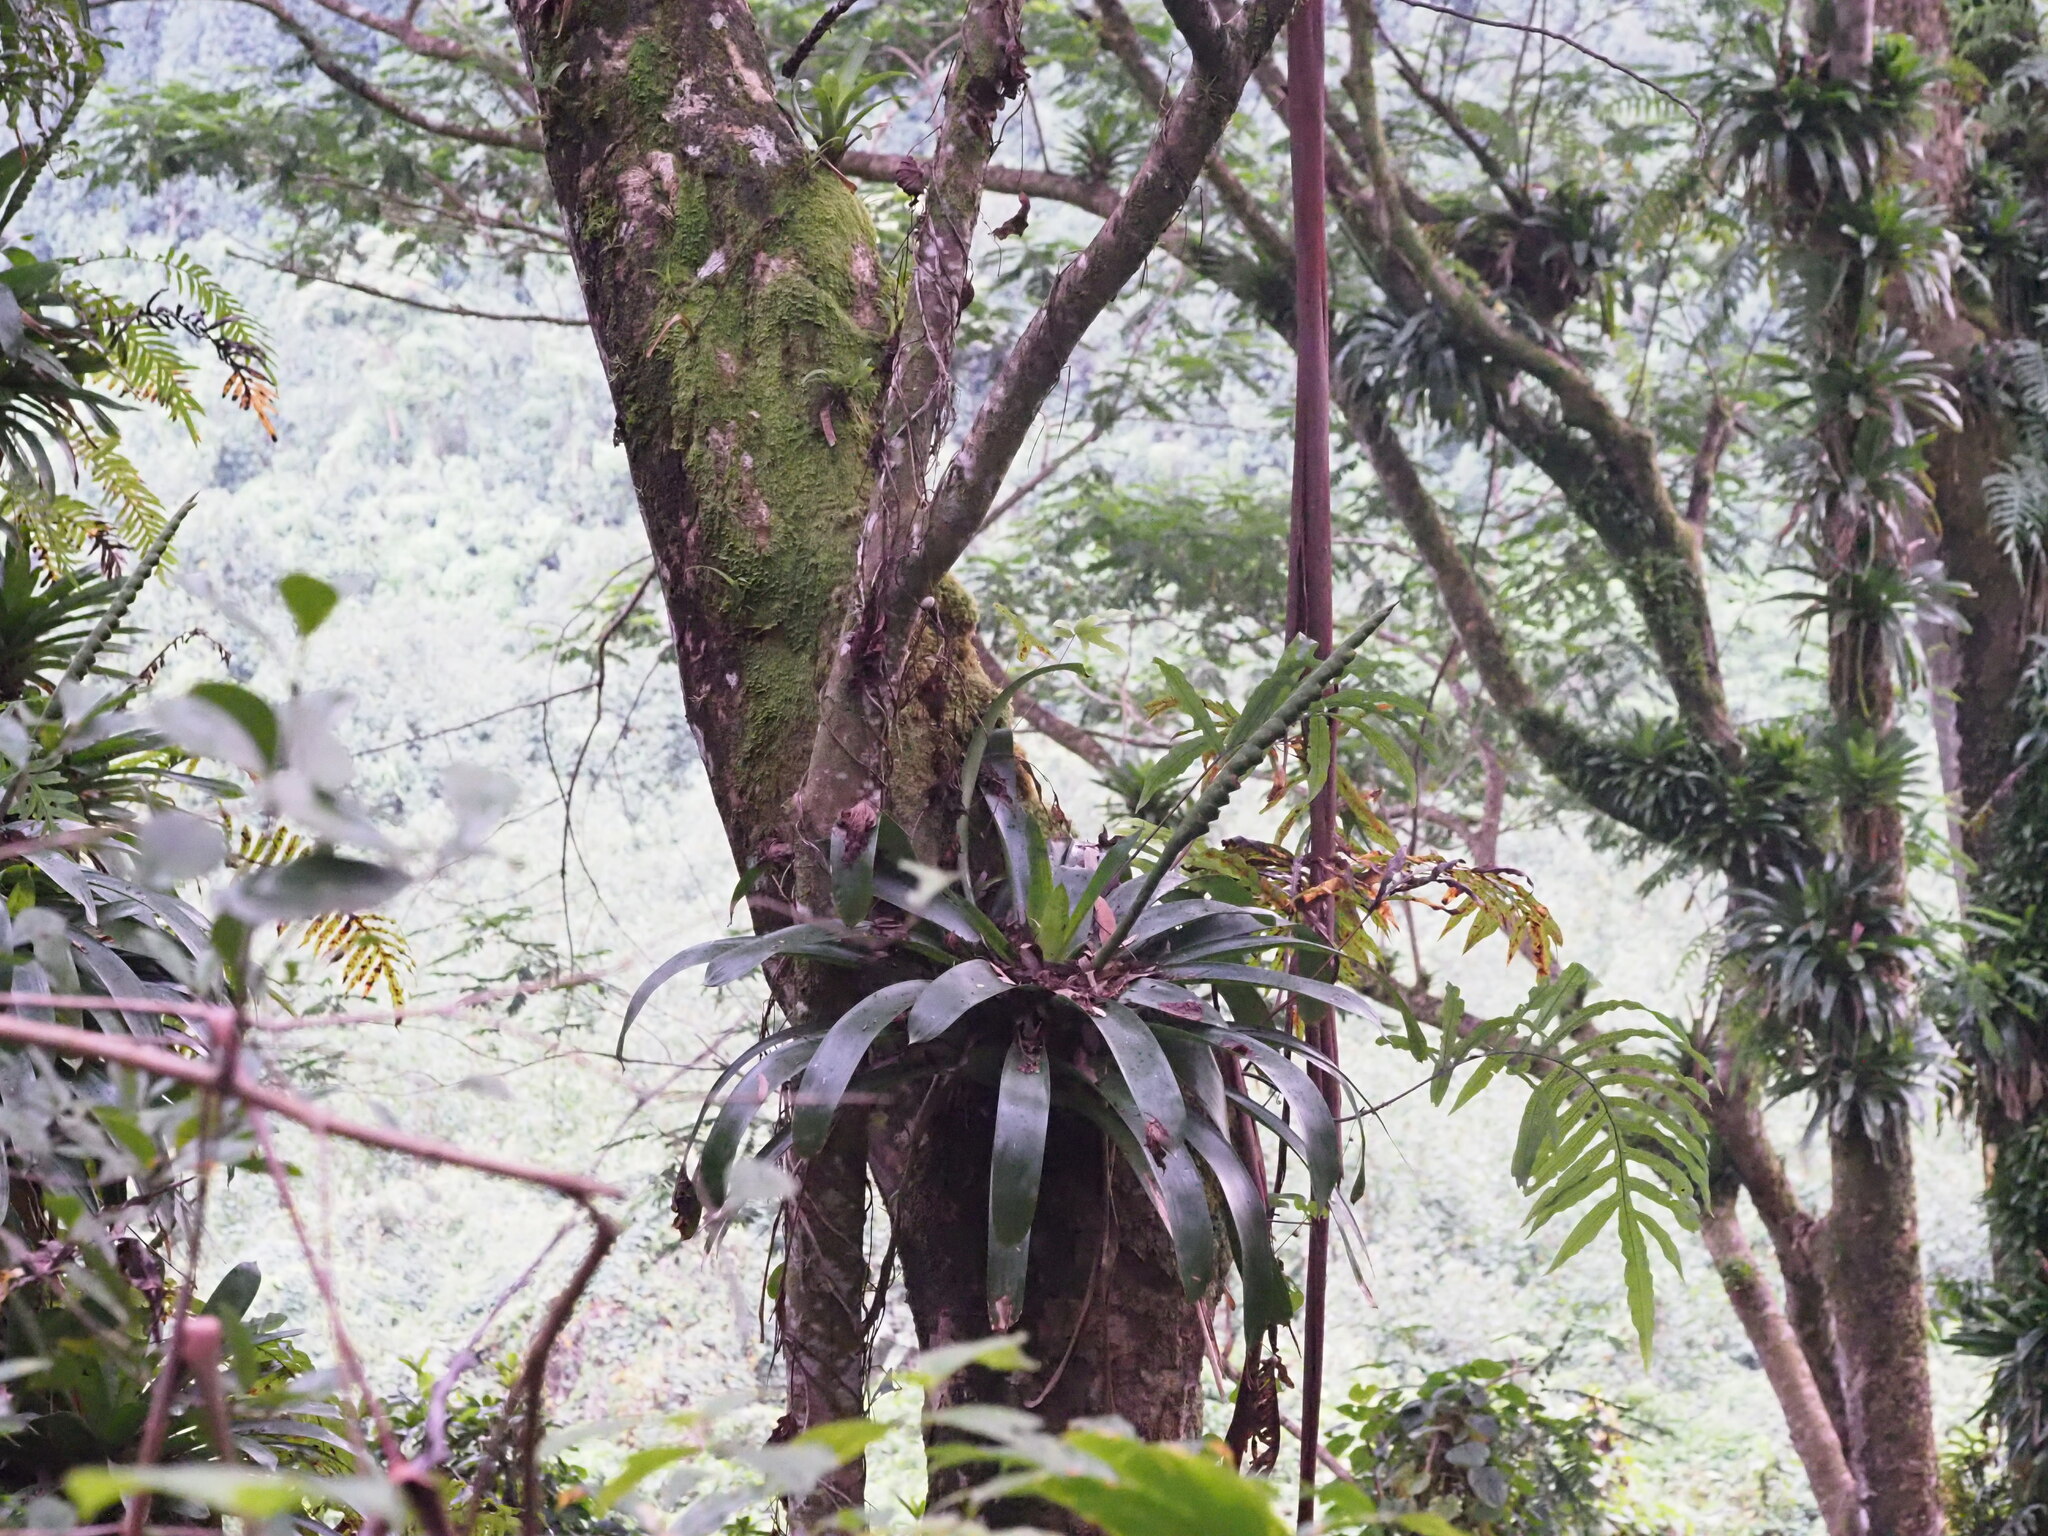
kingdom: Plantae
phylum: Tracheophyta
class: Liliopsida
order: Poales
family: Bromeliaceae
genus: Werauhia
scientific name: Werauhia gladioliflora
